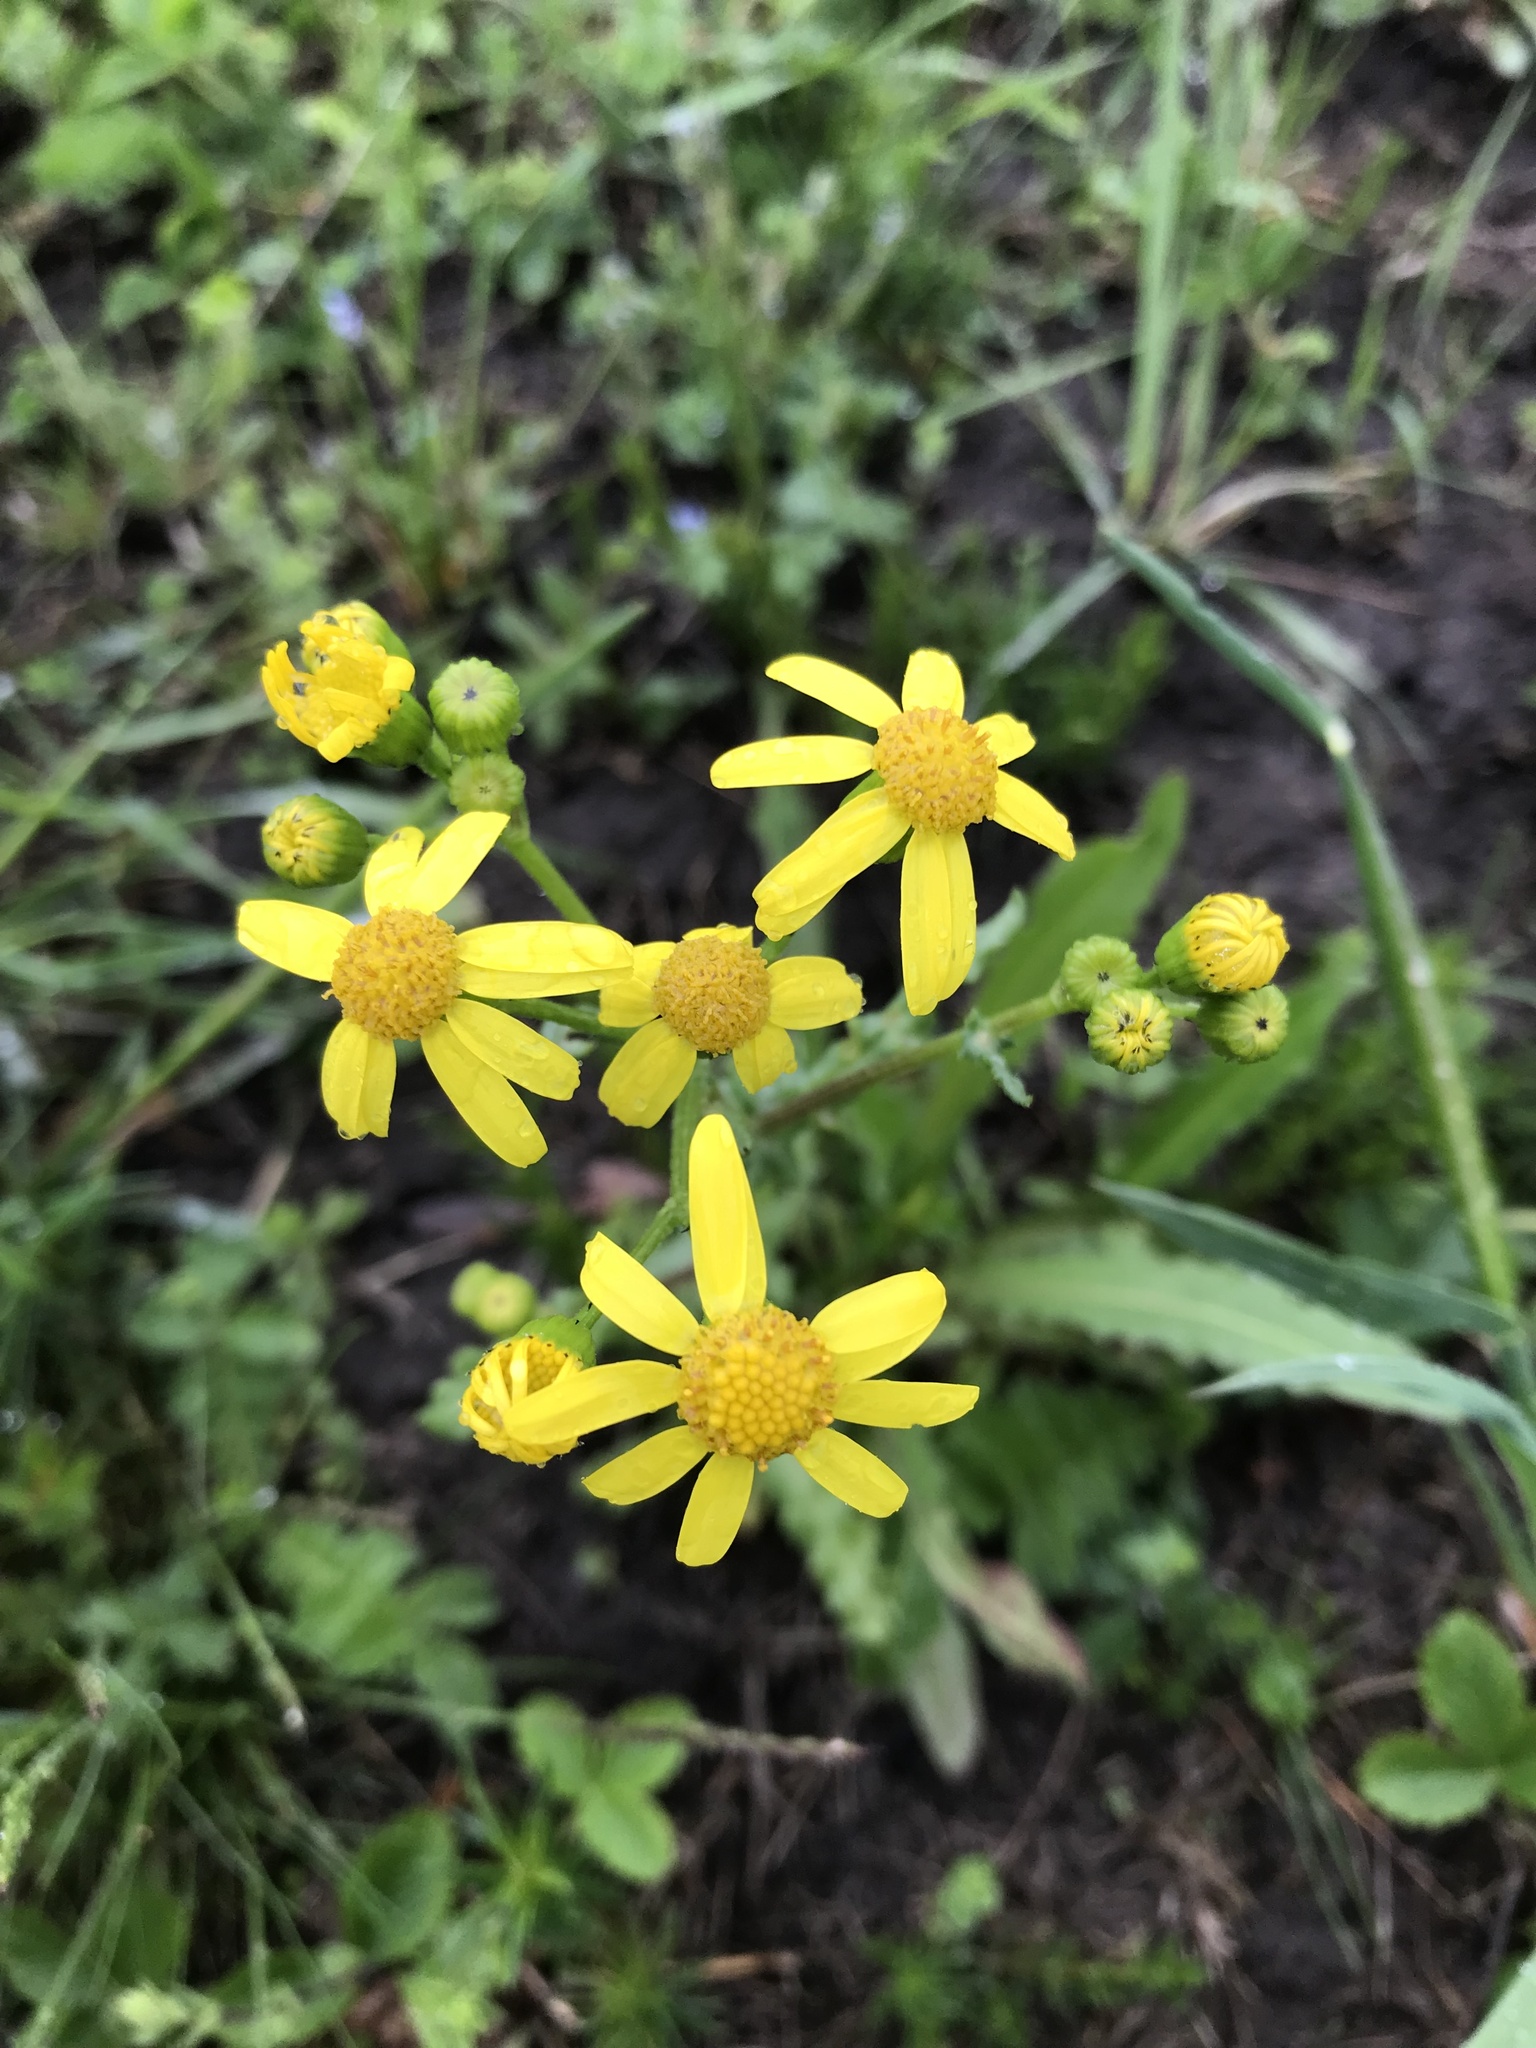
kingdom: Plantae
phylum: Tracheophyta
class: Magnoliopsida
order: Asterales
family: Asteraceae
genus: Senecio
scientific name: Senecio vernalis
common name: Eastern groundsel
